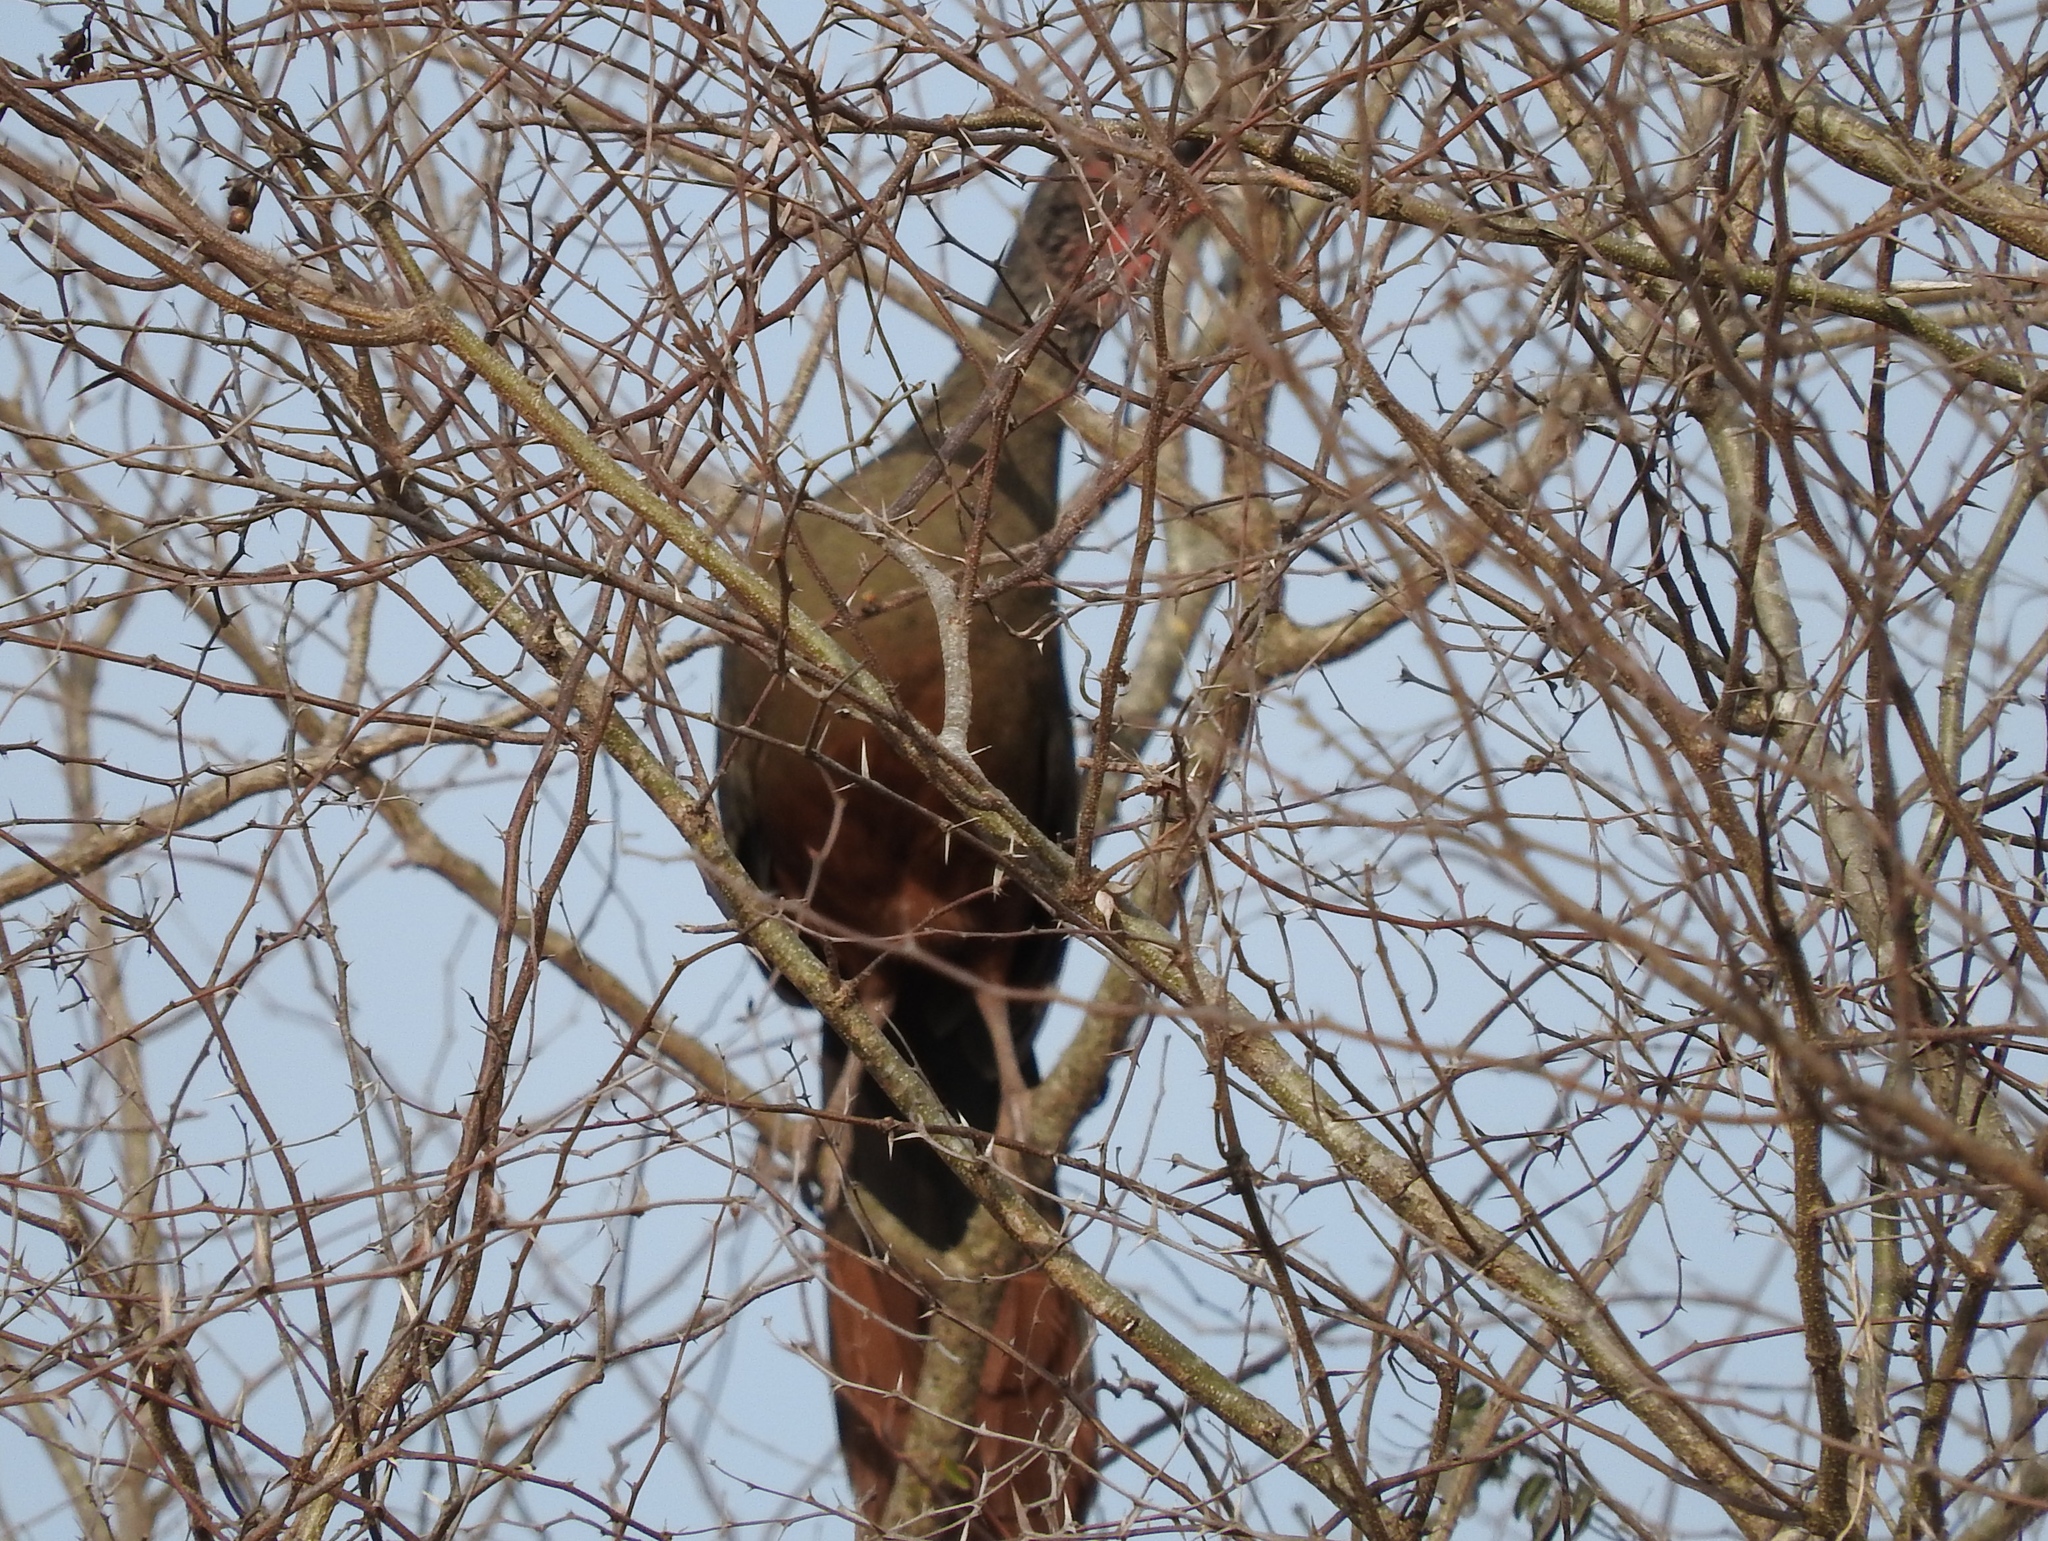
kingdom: Animalia
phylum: Chordata
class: Aves
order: Galliformes
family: Cracidae
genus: Ortalis
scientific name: Ortalis wagleri
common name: Rufous-bellied chachalaca
